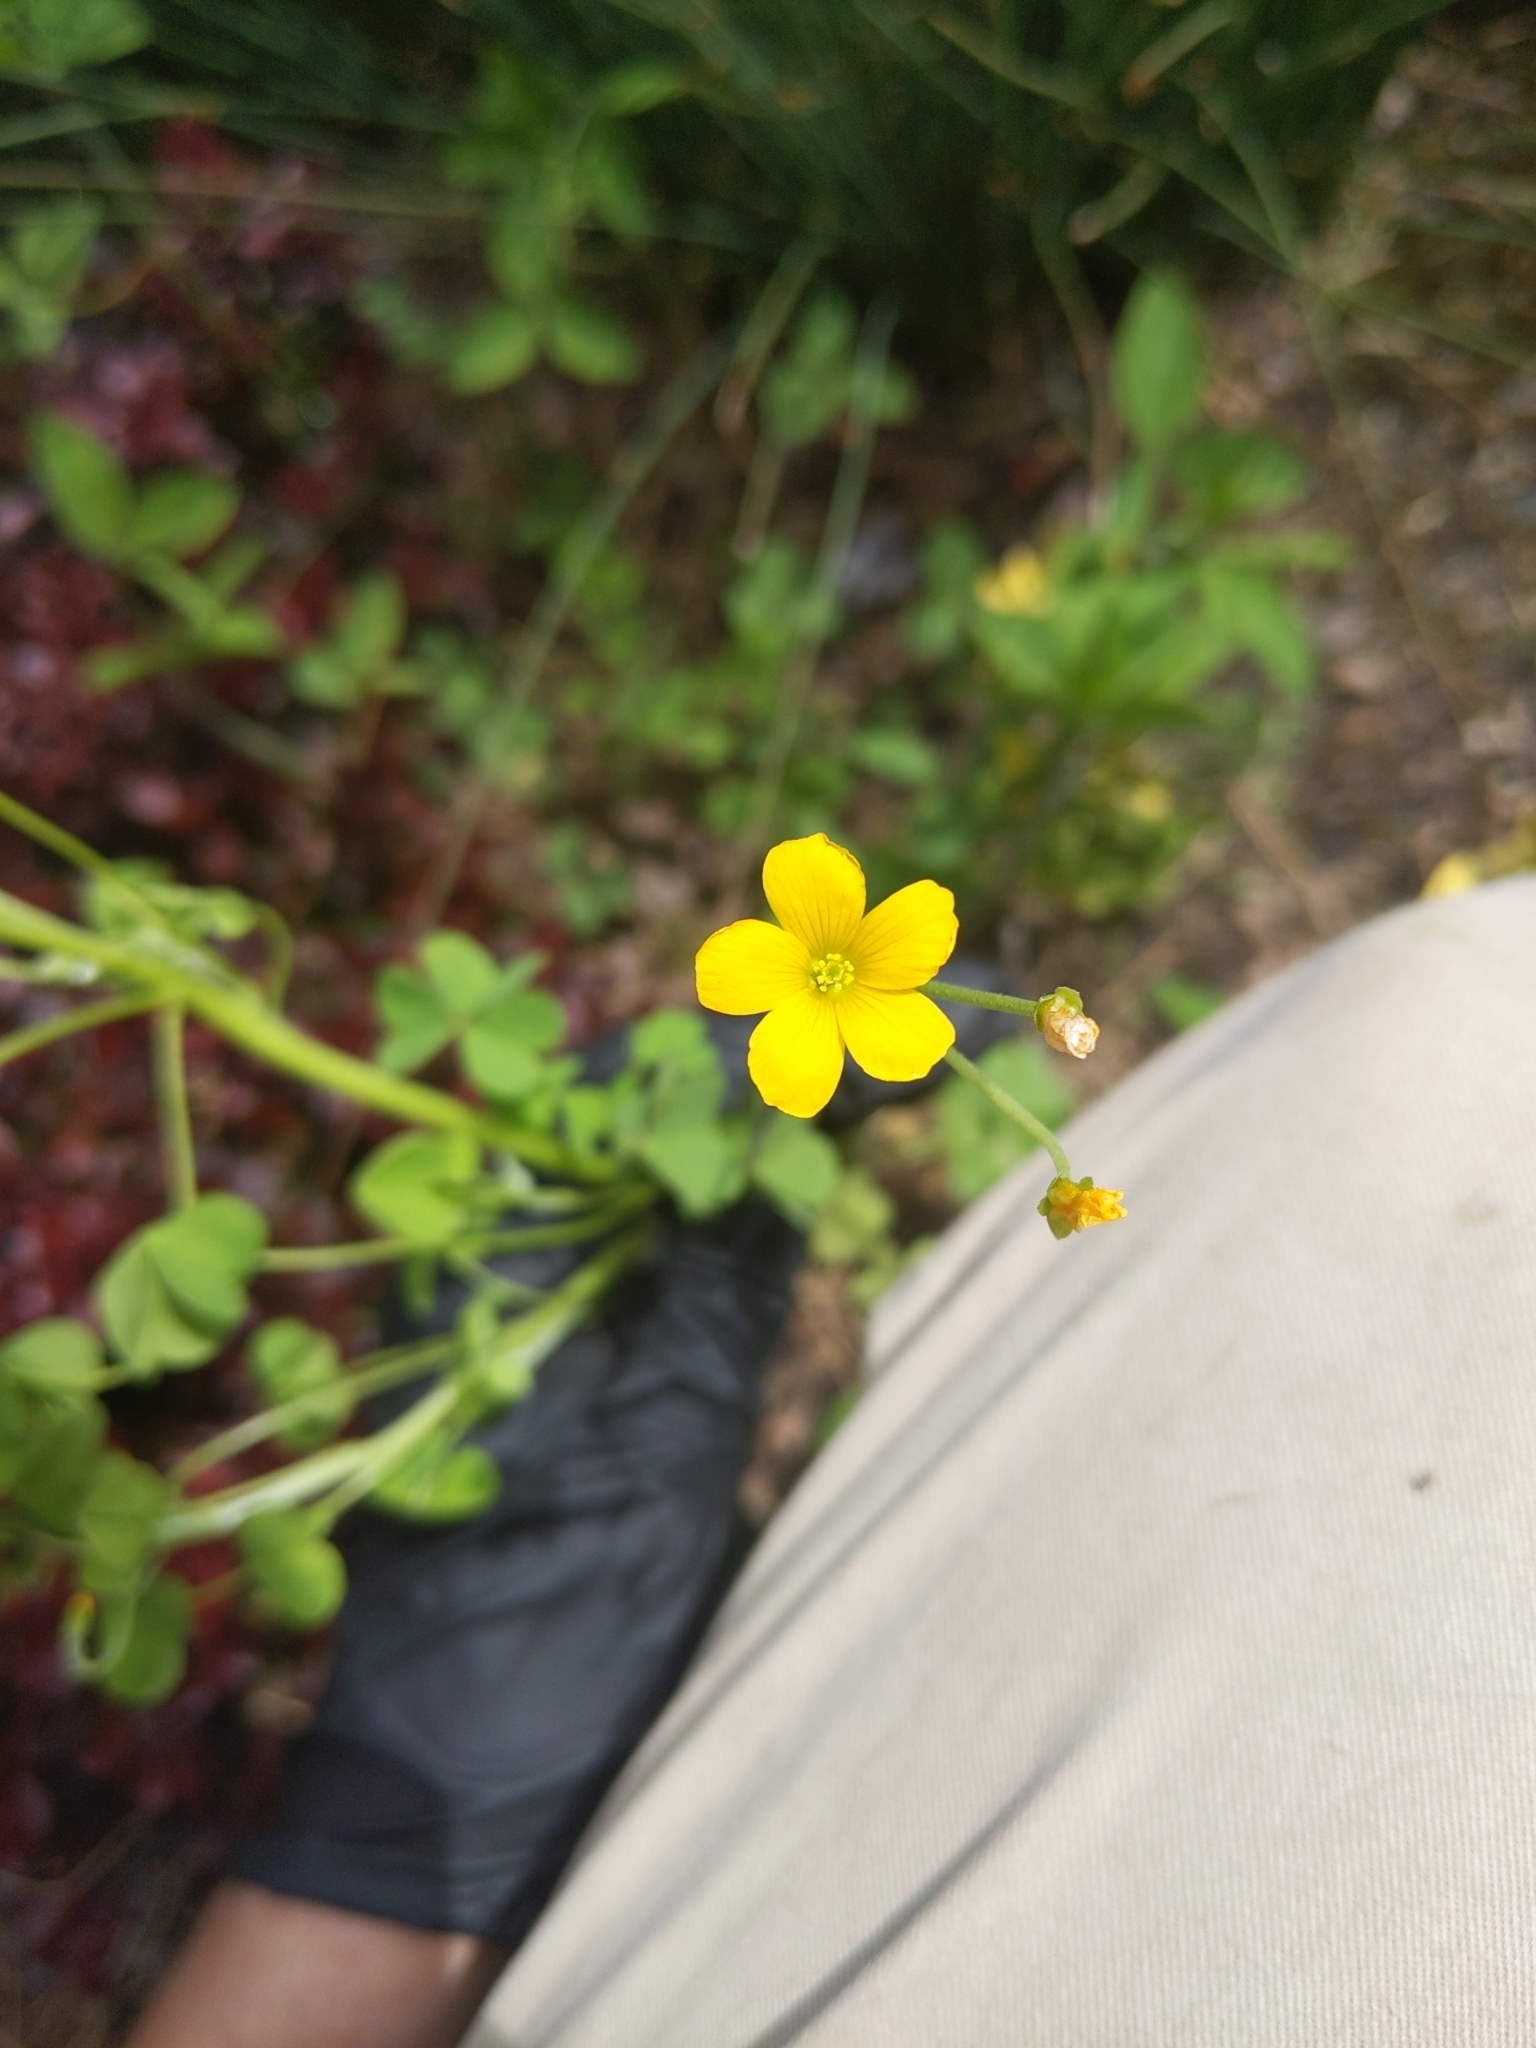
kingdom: Plantae
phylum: Tracheophyta
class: Magnoliopsida
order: Oxalidales
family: Oxalidaceae
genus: Oxalis
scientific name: Oxalis dillenii
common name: Sussex yellow-sorrel
